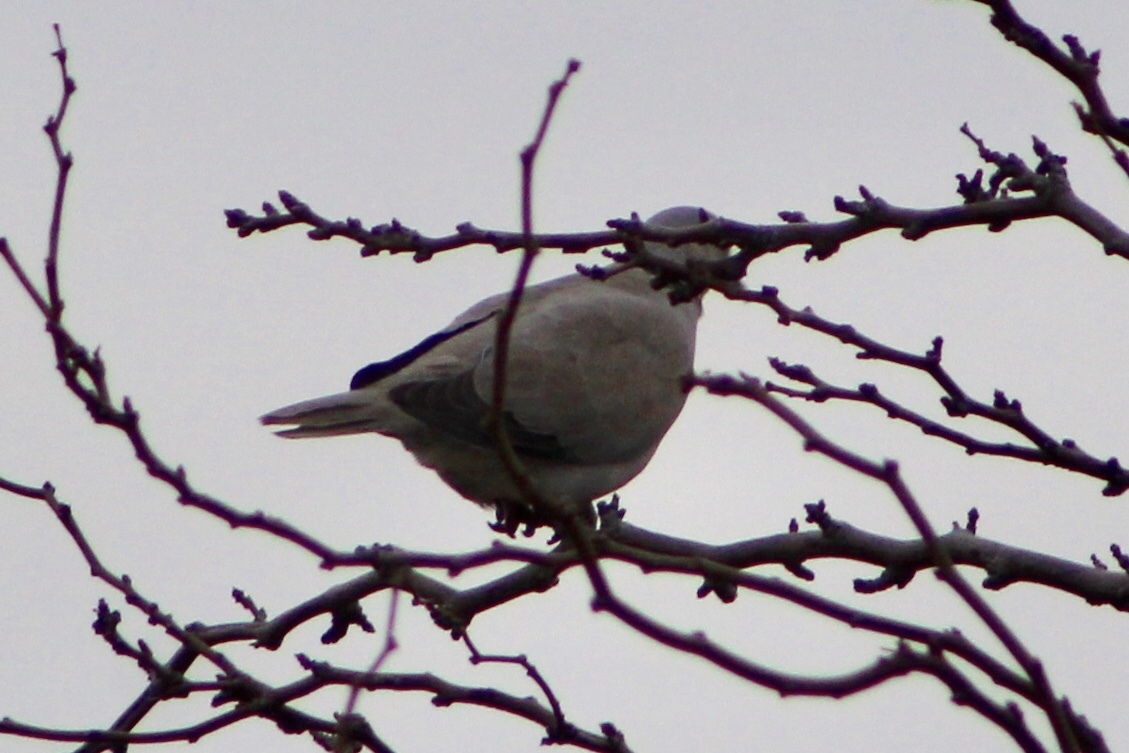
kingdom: Animalia
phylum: Chordata
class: Aves
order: Columbiformes
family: Columbidae
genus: Streptopelia
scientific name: Streptopelia decaocto
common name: Eurasian collared dove
